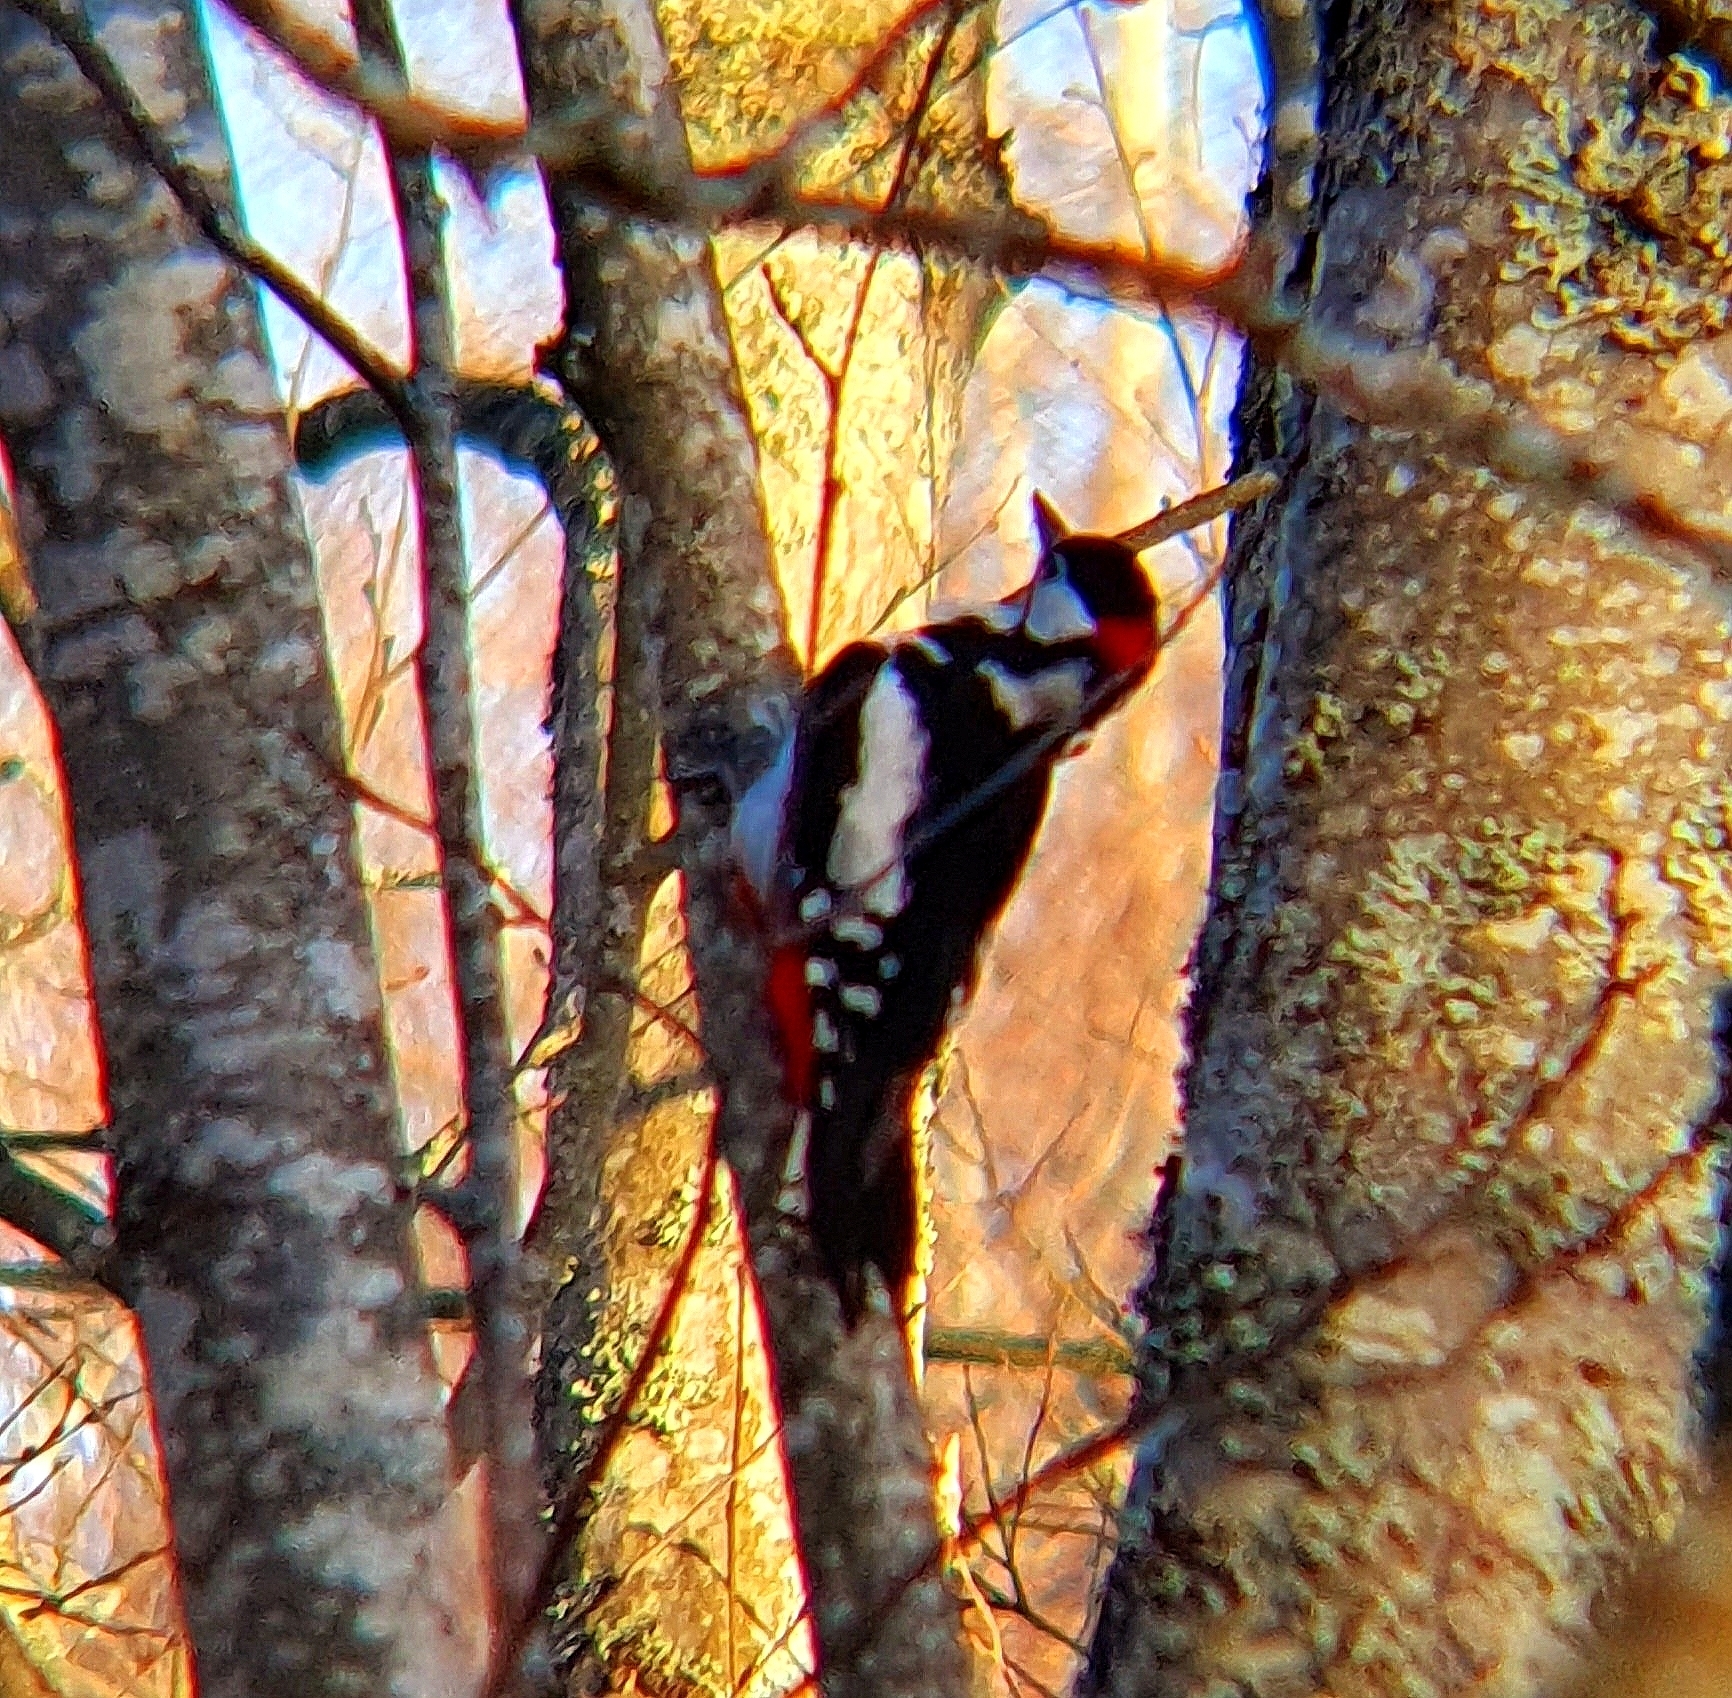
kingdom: Animalia
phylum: Chordata
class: Aves
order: Piciformes
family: Picidae
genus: Dendrocopos
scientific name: Dendrocopos major
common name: Great spotted woodpecker
